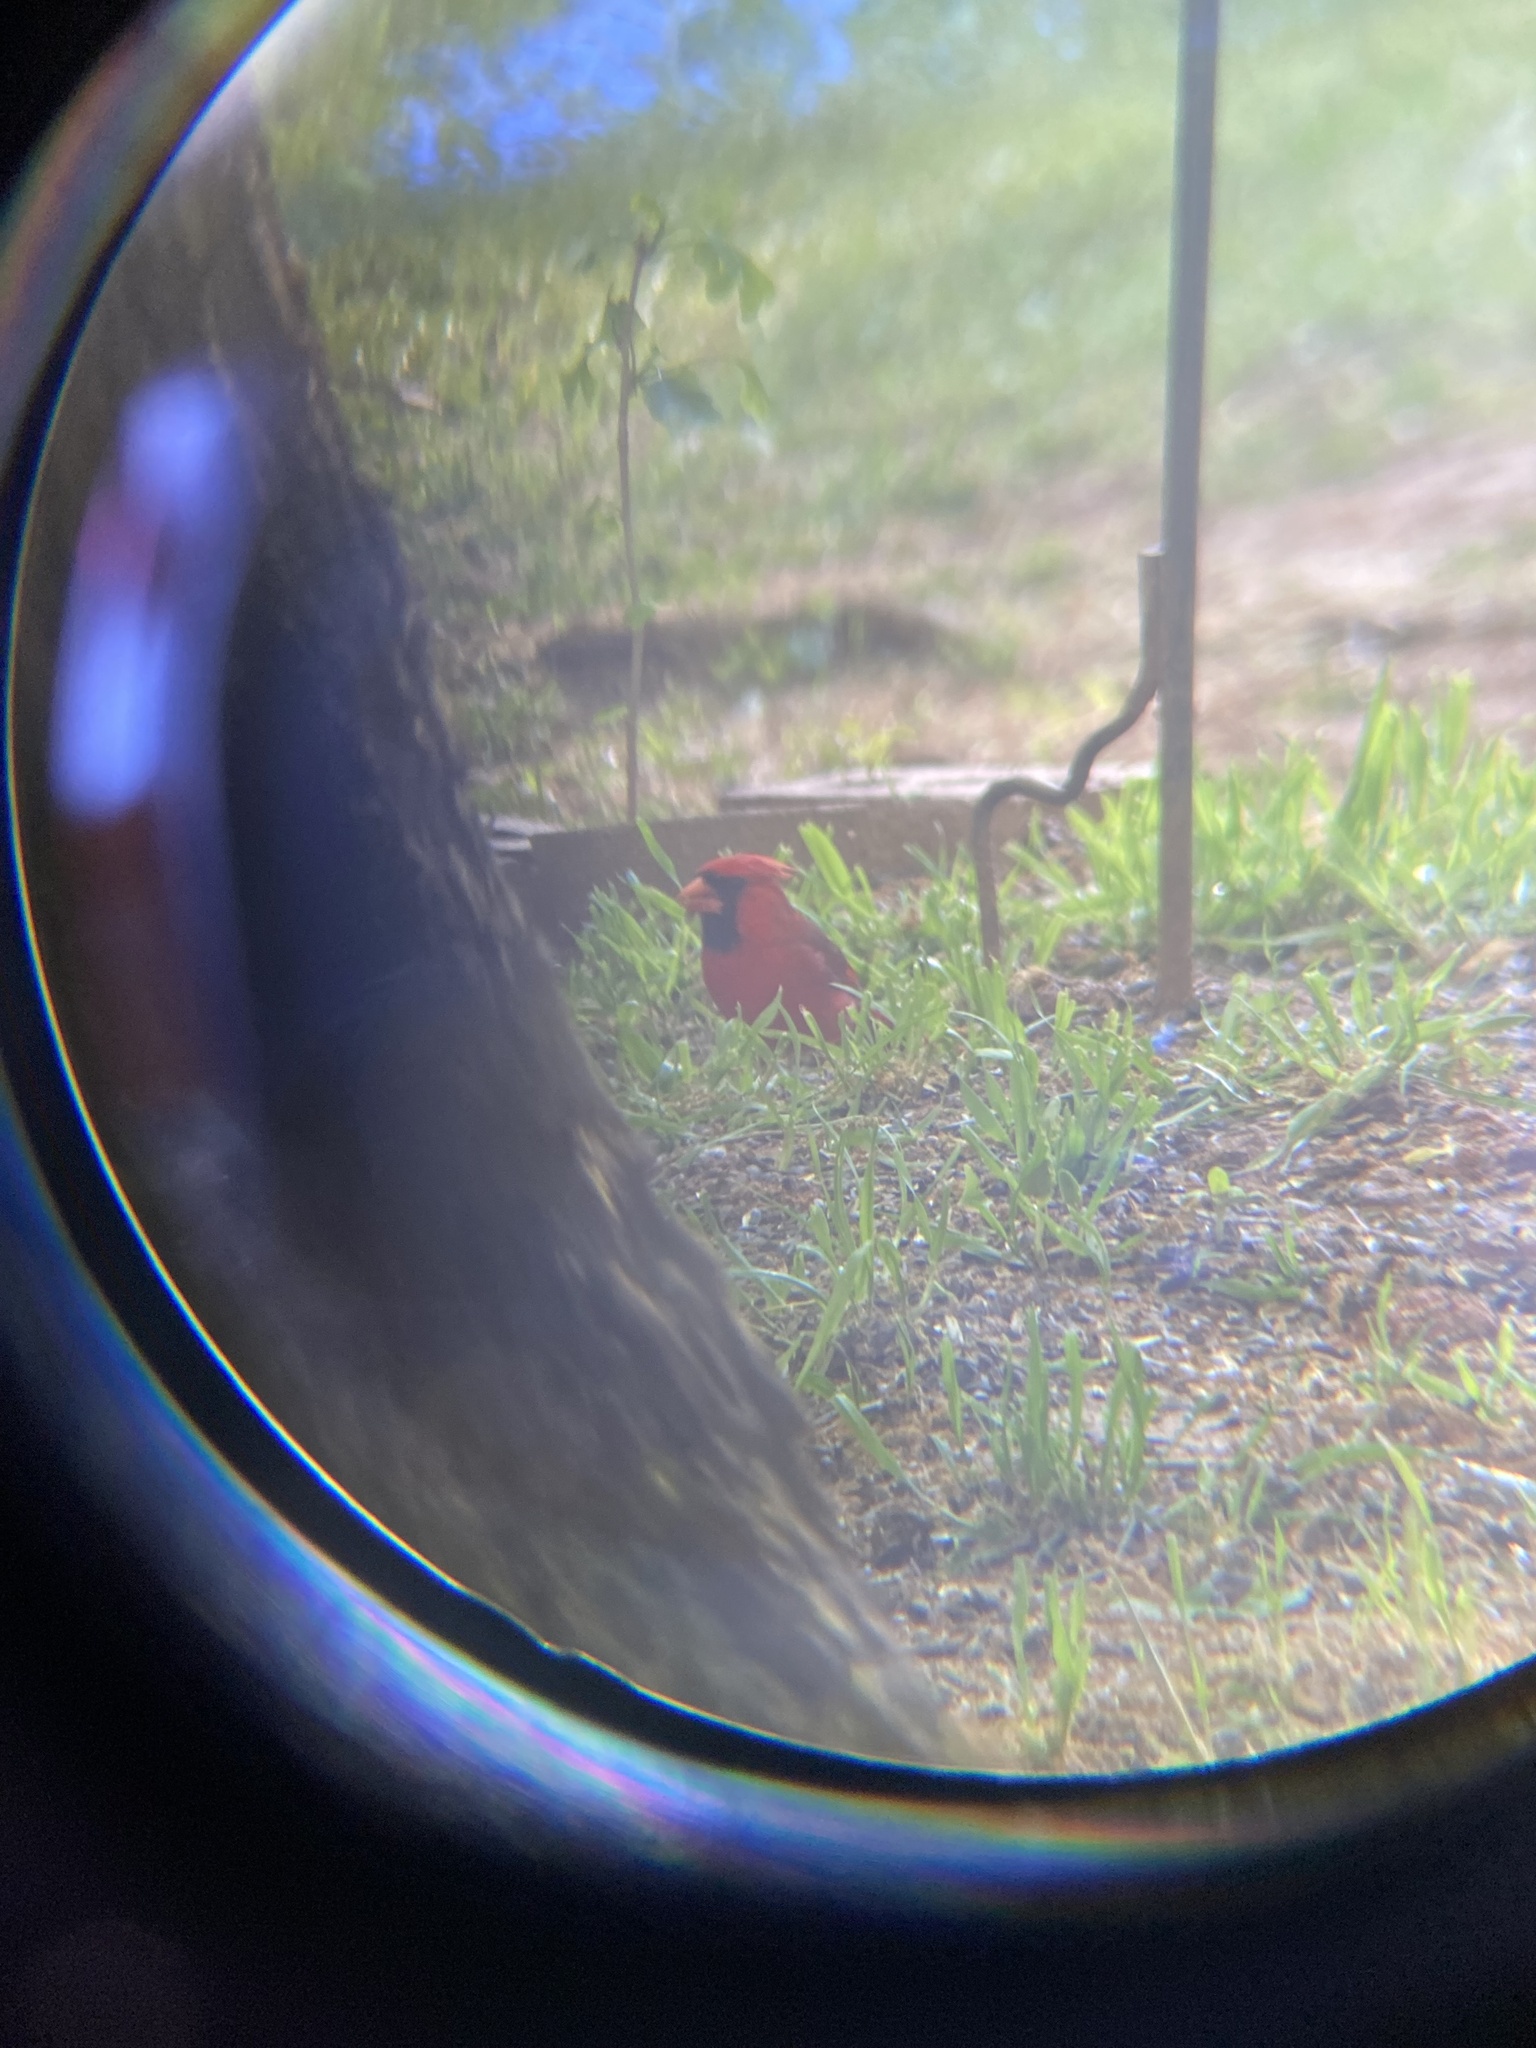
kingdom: Animalia
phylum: Chordata
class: Aves
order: Passeriformes
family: Cardinalidae
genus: Cardinalis
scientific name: Cardinalis cardinalis
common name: Northern cardinal
